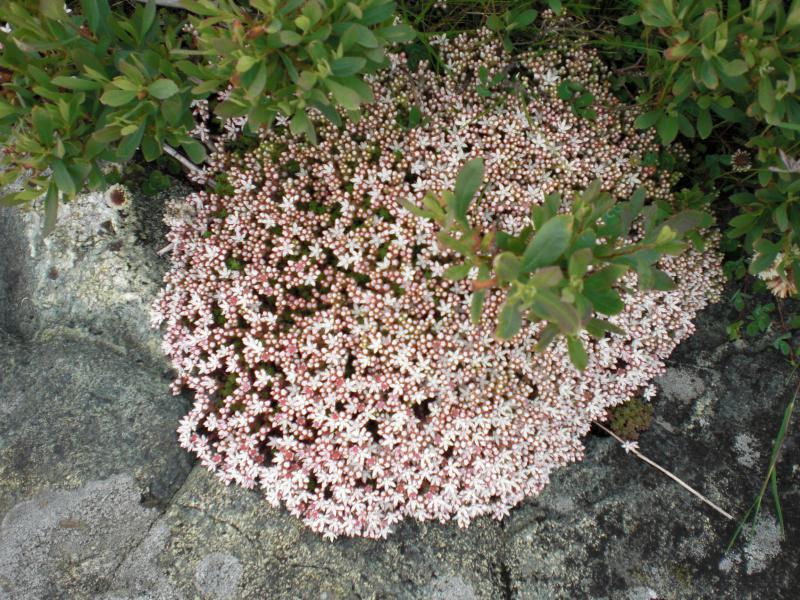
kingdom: Plantae
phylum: Tracheophyta
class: Magnoliopsida
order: Saxifragales
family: Crassulaceae
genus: Sedum
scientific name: Sedum anglicum
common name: English stonecrop
